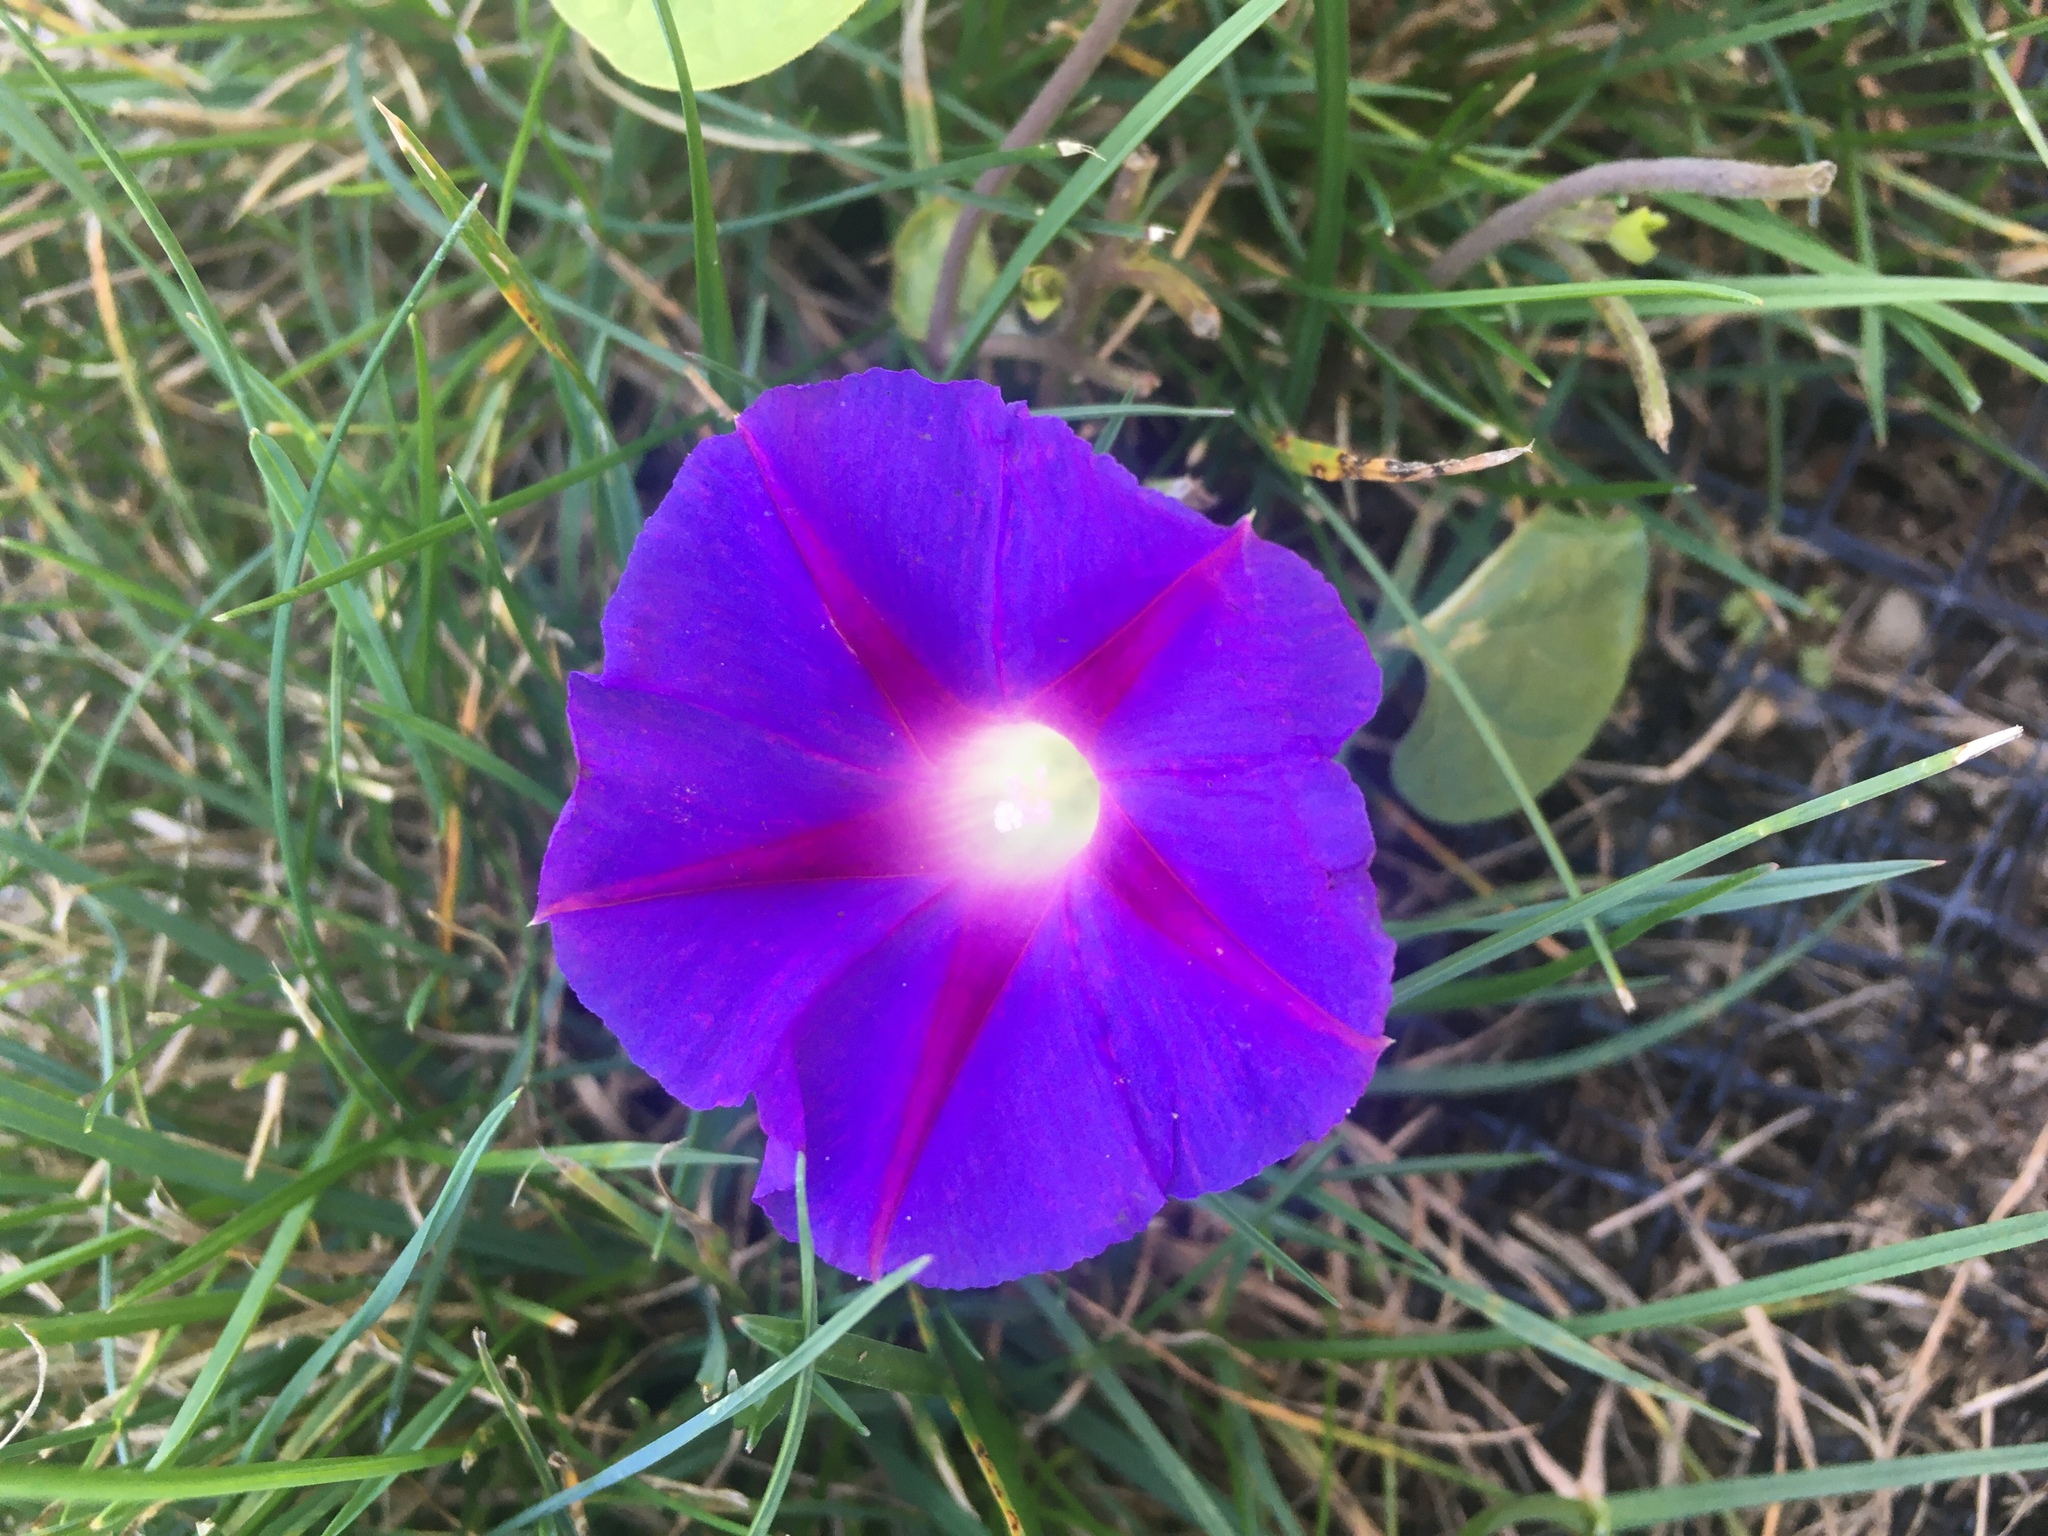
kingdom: Plantae
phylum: Tracheophyta
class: Magnoliopsida
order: Solanales
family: Convolvulaceae
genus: Ipomoea
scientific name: Ipomoea purpurea
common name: Common morning-glory
